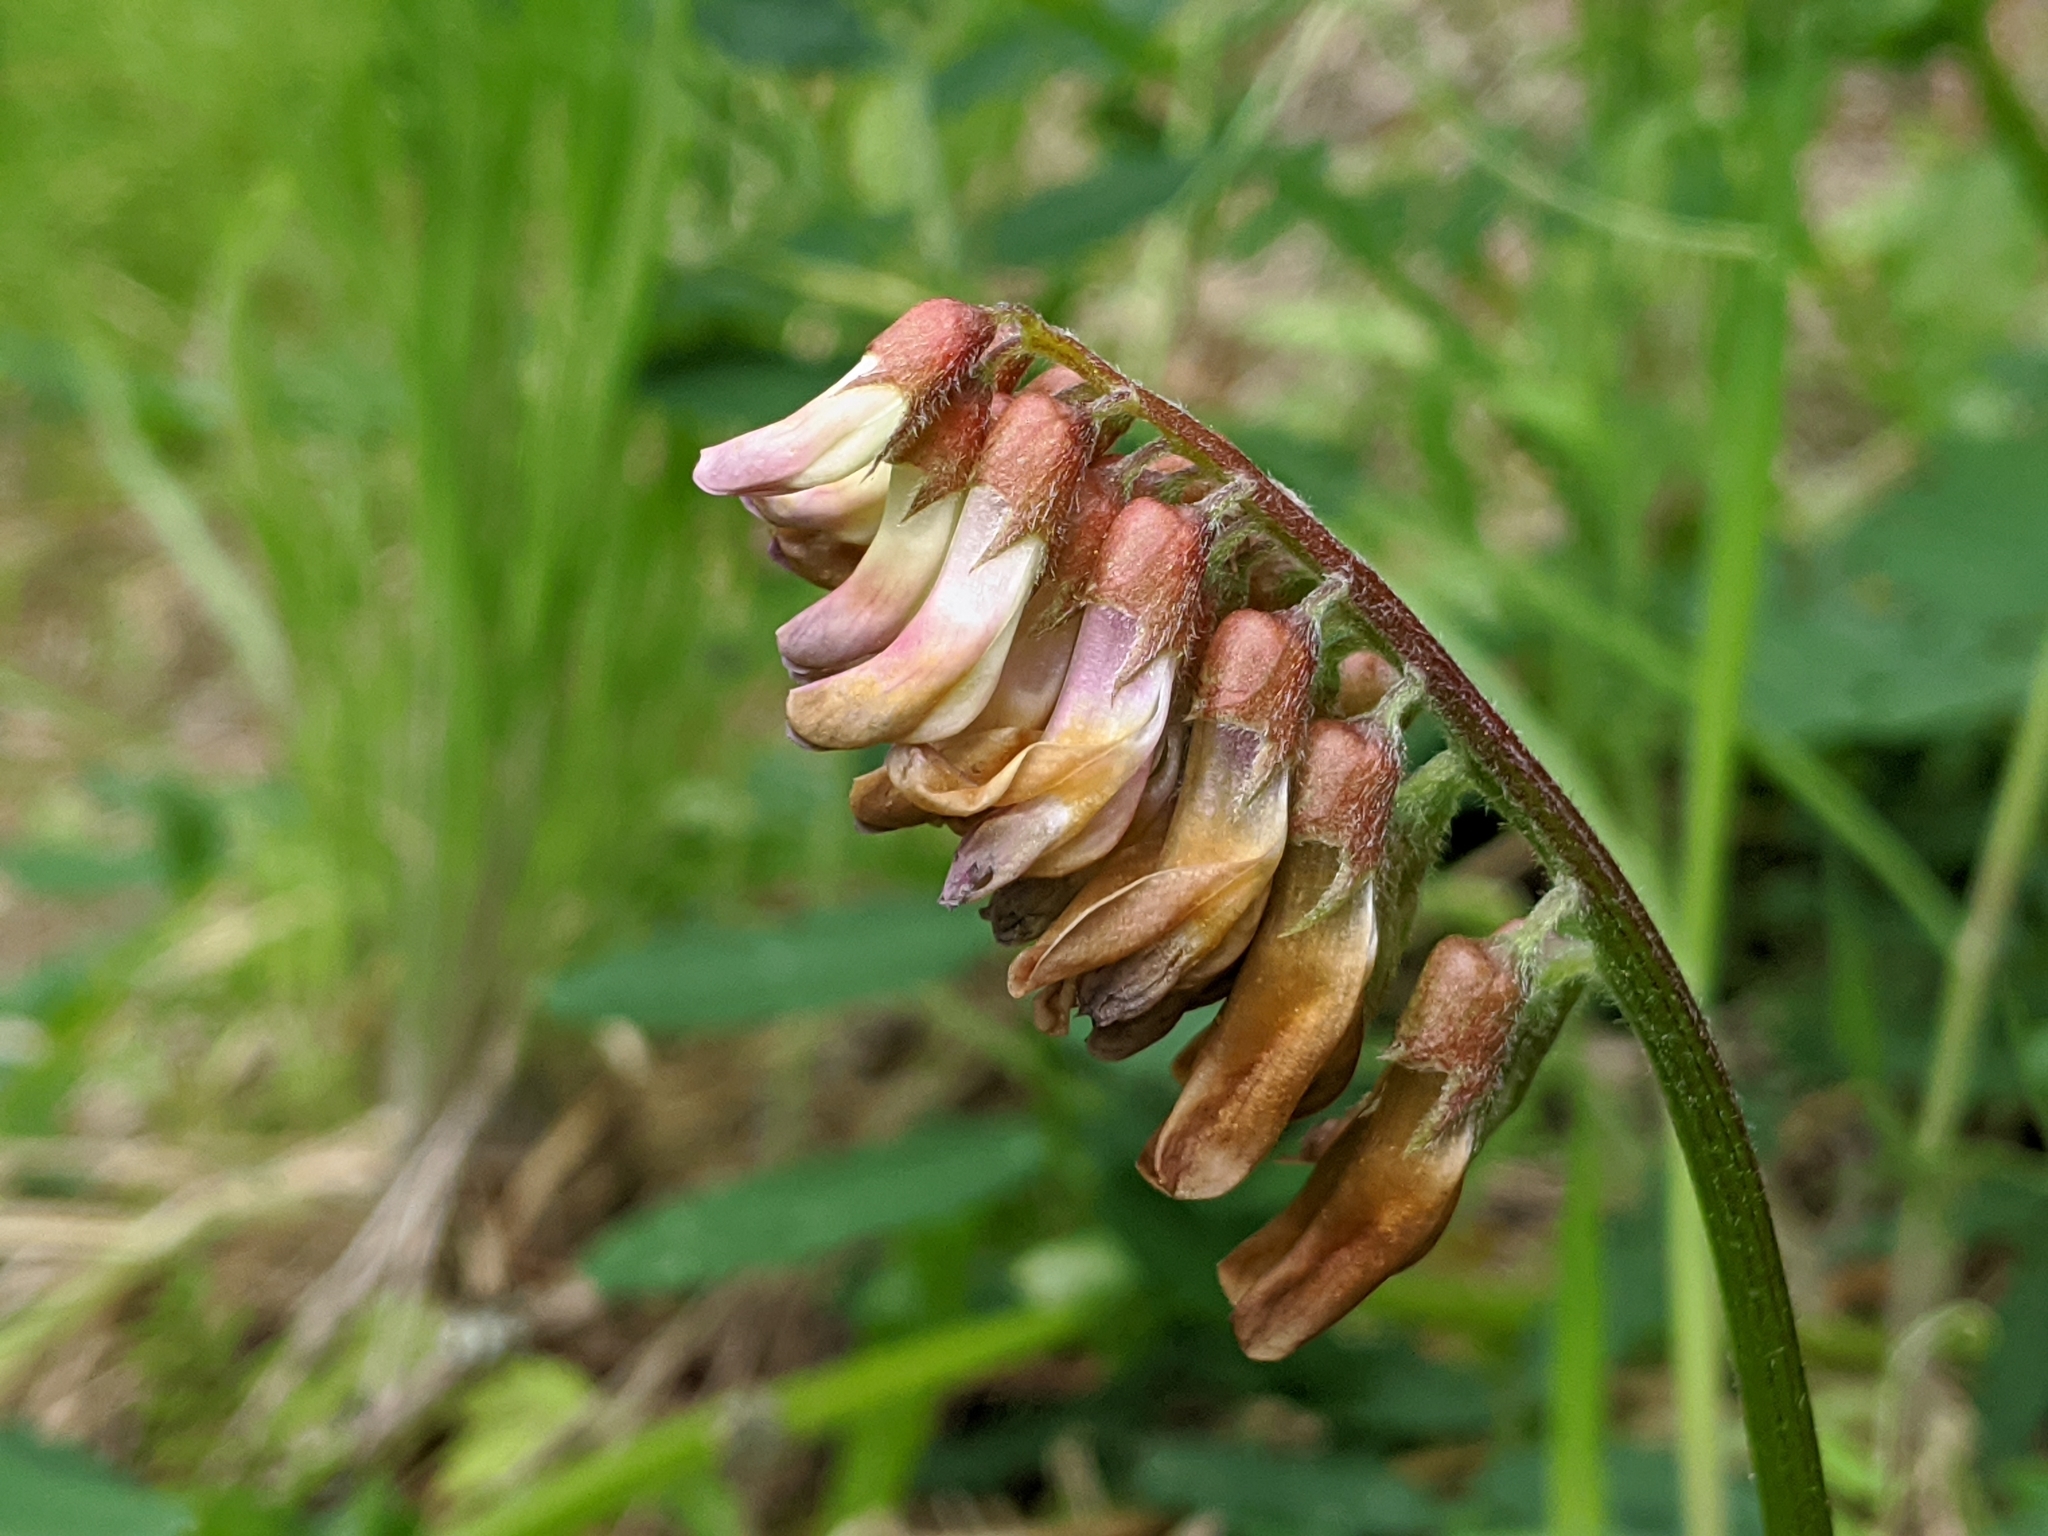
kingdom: Plantae
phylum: Tracheophyta
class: Magnoliopsida
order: Fabales
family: Fabaceae
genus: Vicia
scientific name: Vicia
